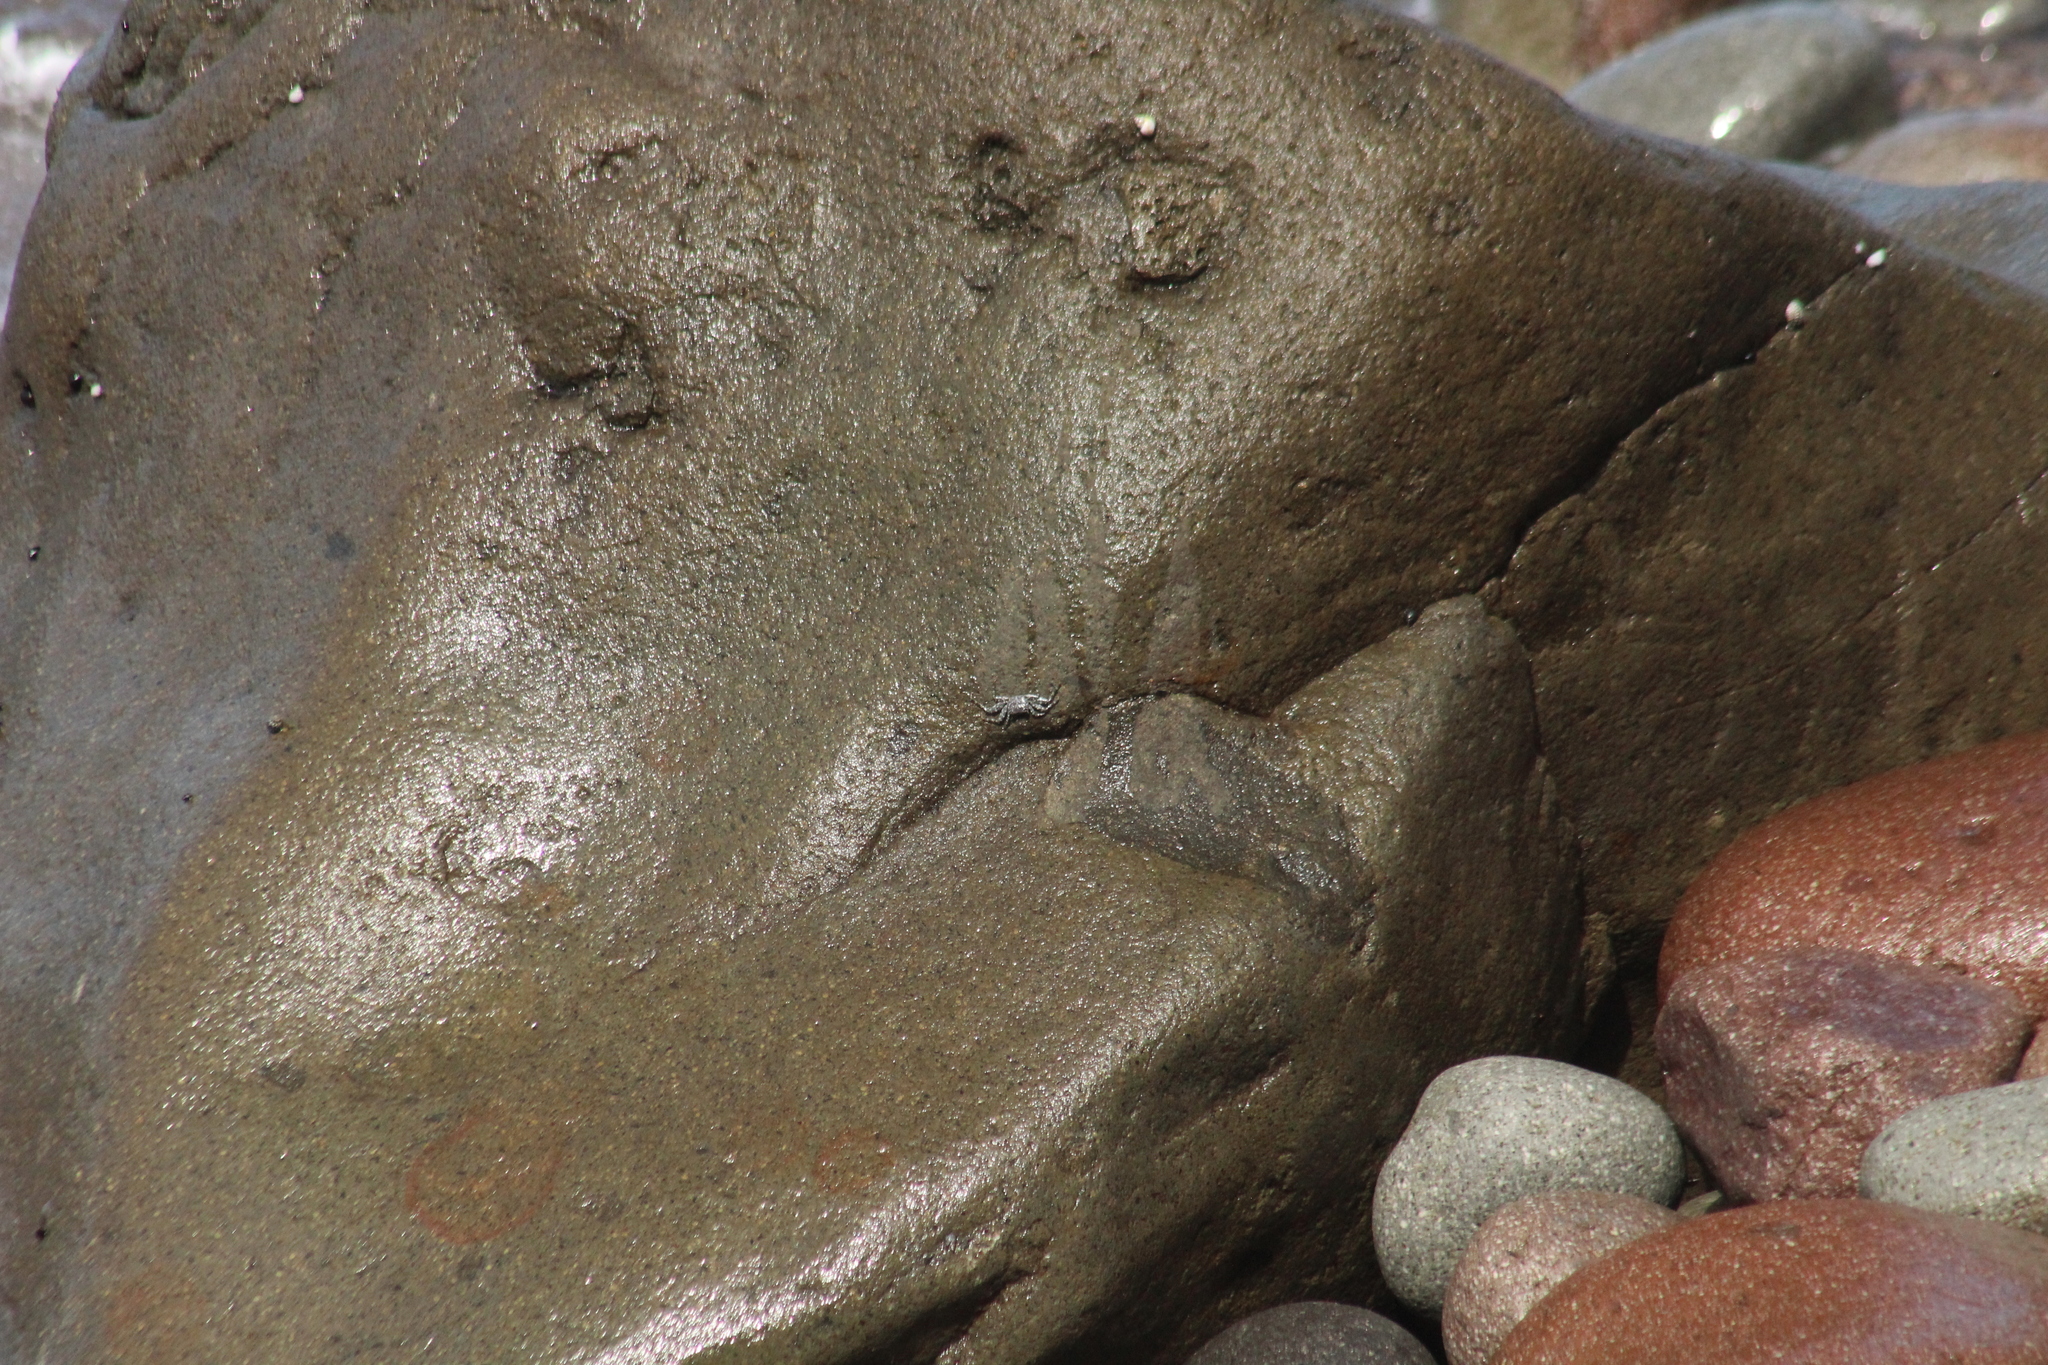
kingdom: Animalia
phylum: Arthropoda
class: Malacostraca
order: Decapoda
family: Grapsidae
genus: Grapsus
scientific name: Grapsus grapsus
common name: Sally lightfoot
